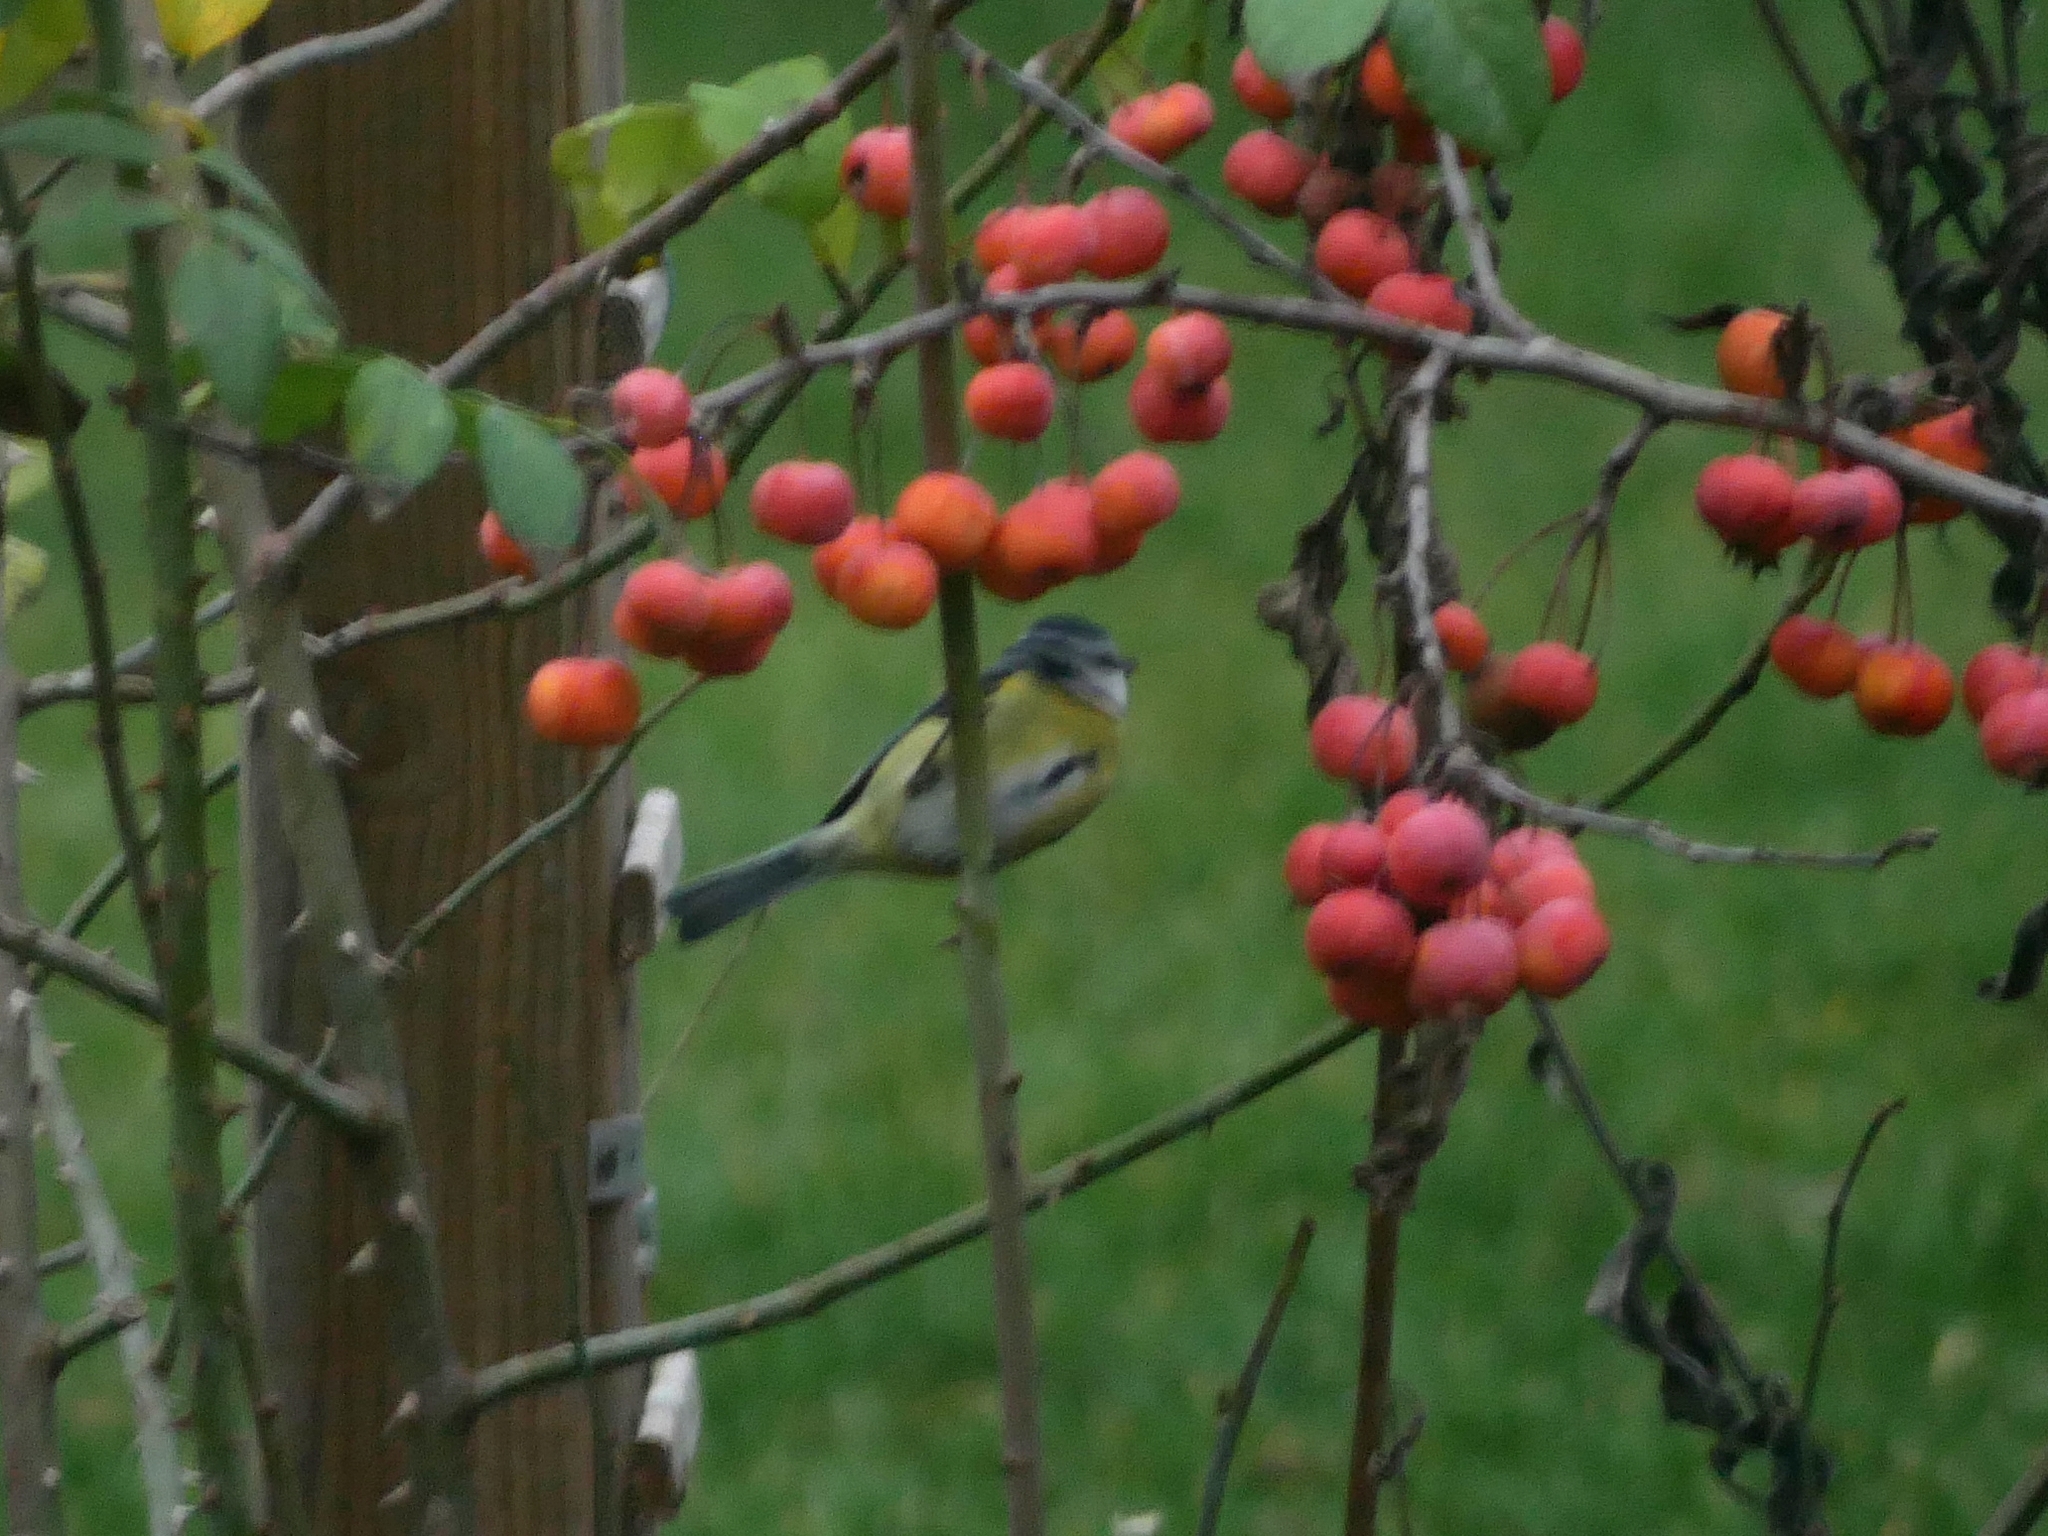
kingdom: Animalia
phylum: Chordata
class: Aves
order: Passeriformes
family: Paridae
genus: Cyanistes
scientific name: Cyanistes caeruleus
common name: Eurasian blue tit
